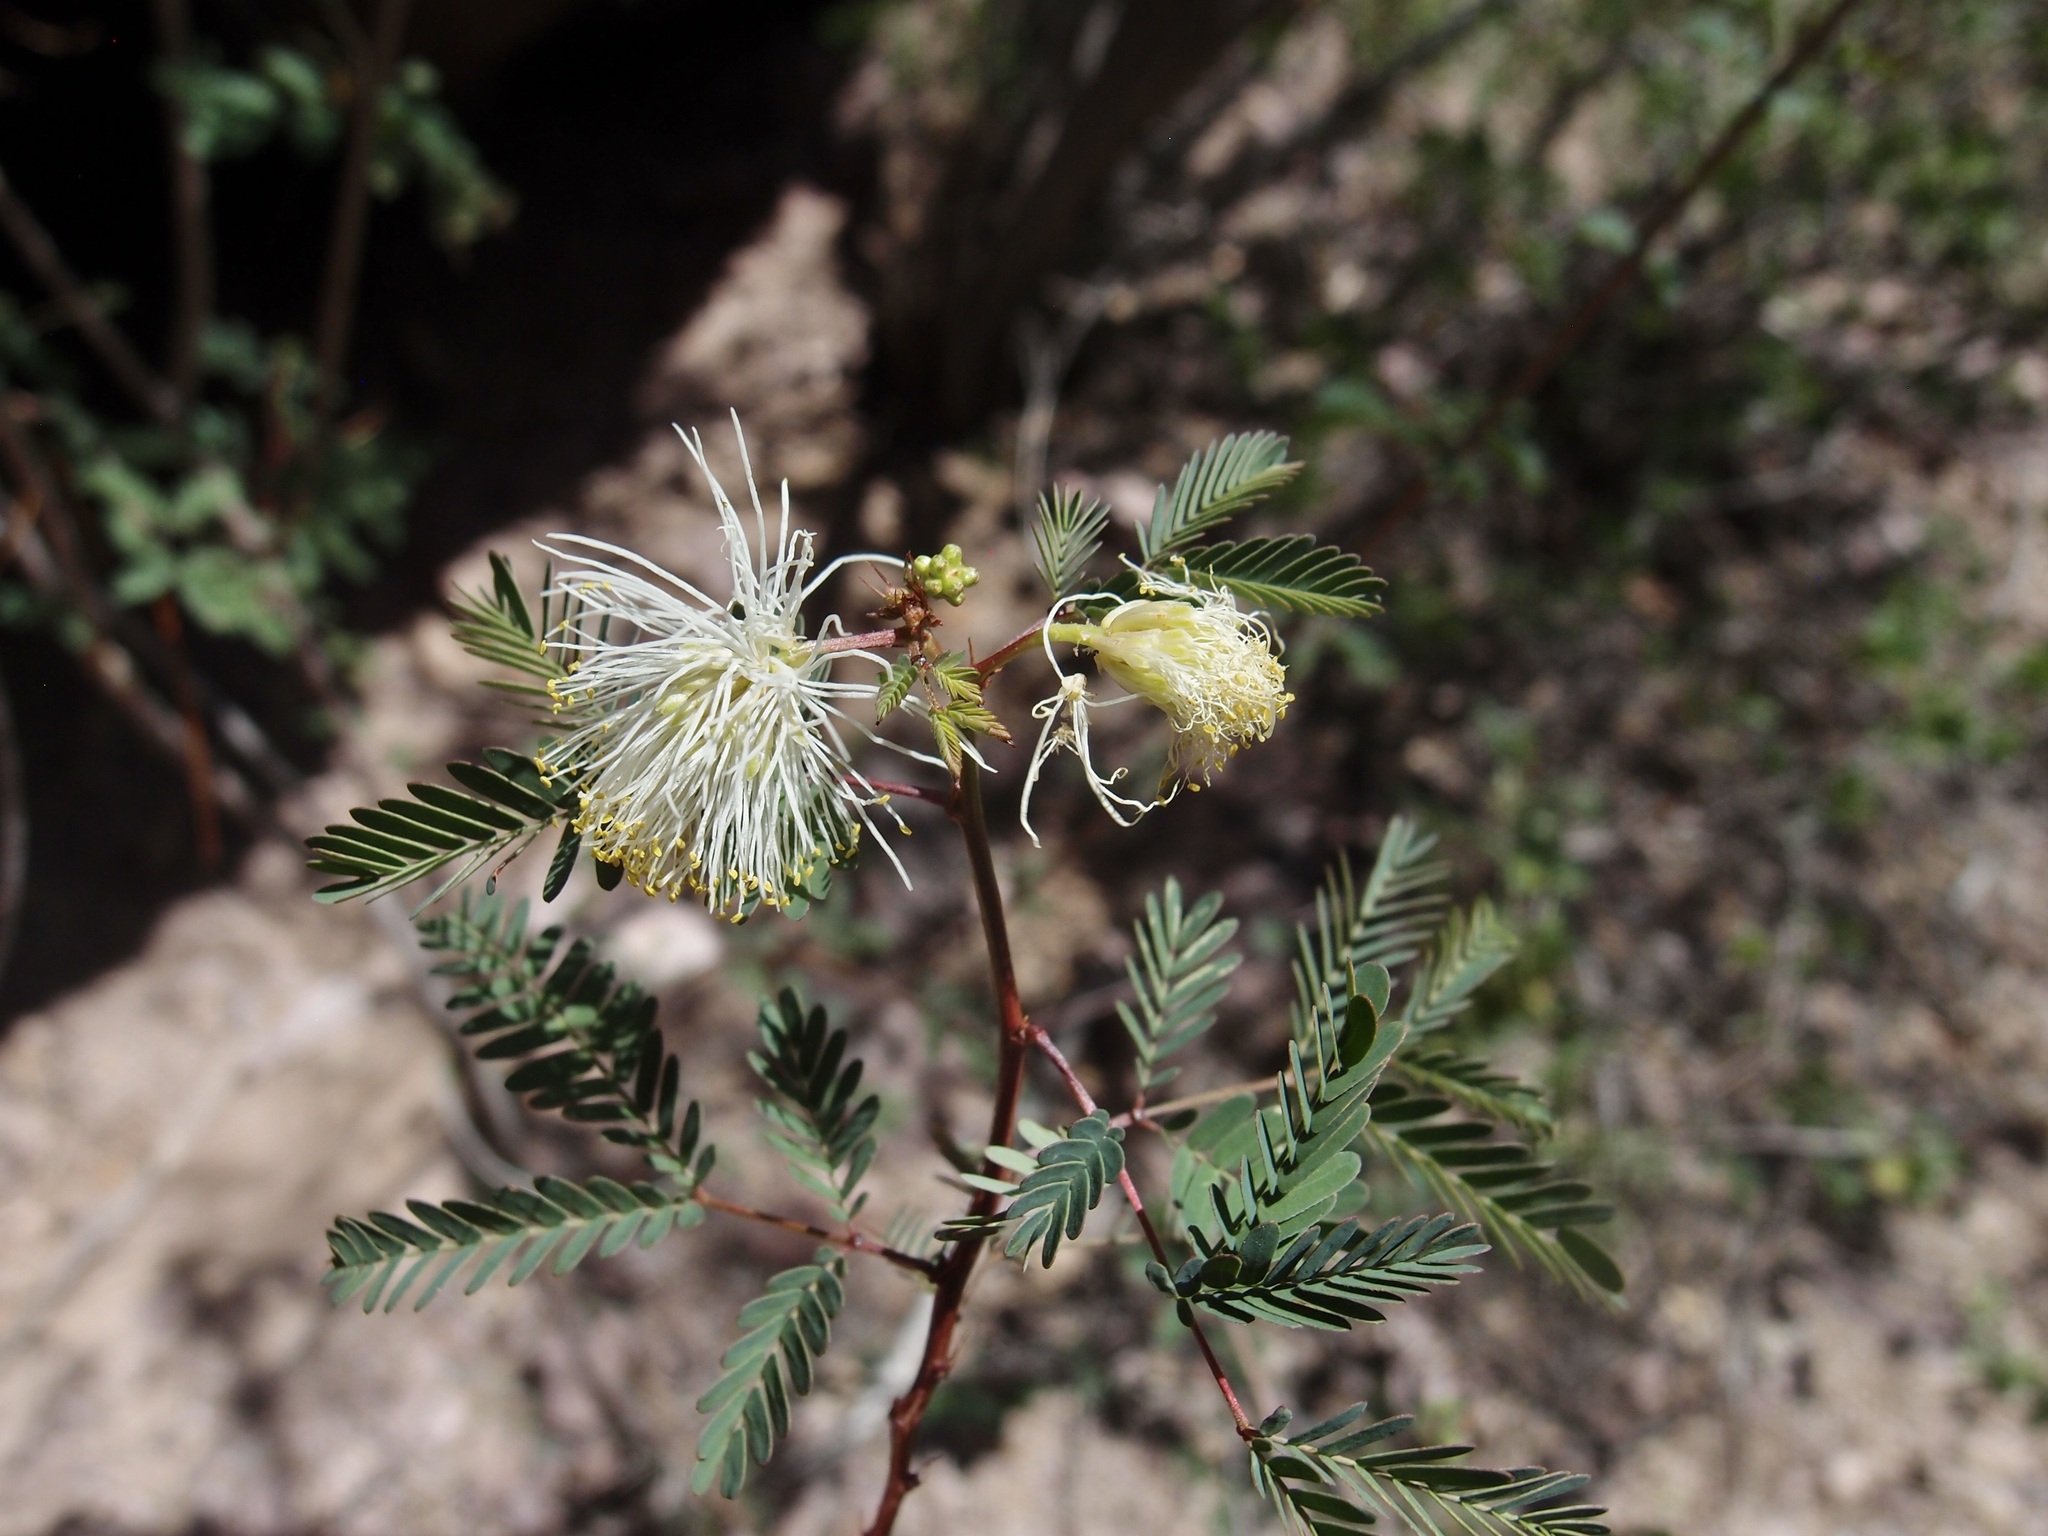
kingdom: Plantae
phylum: Tracheophyta
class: Magnoliopsida
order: Fabales
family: Fabaceae
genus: Desmanthus
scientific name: Desmanthus covillei
